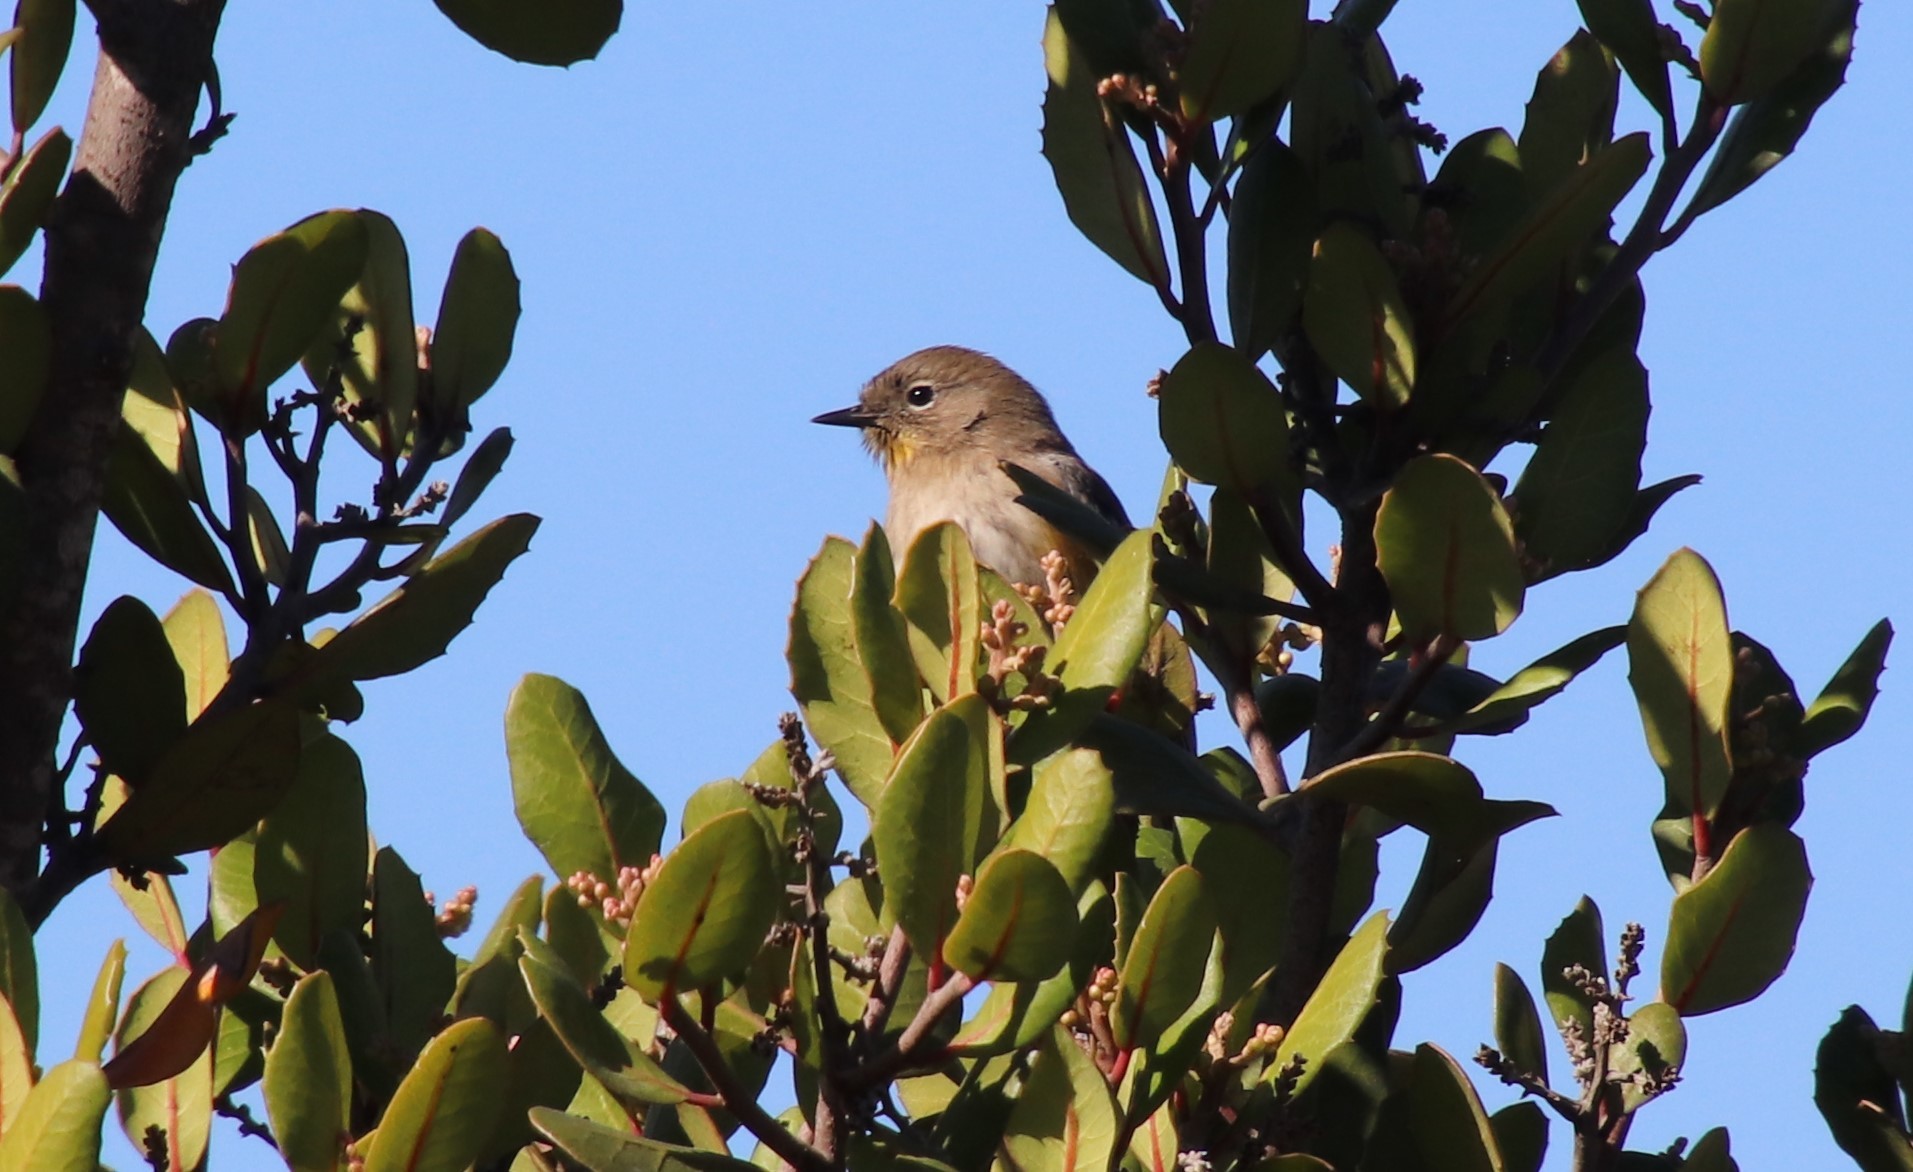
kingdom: Animalia
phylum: Chordata
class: Aves
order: Passeriformes
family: Parulidae
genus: Setophaga
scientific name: Setophaga auduboni
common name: Audubon's warbler
